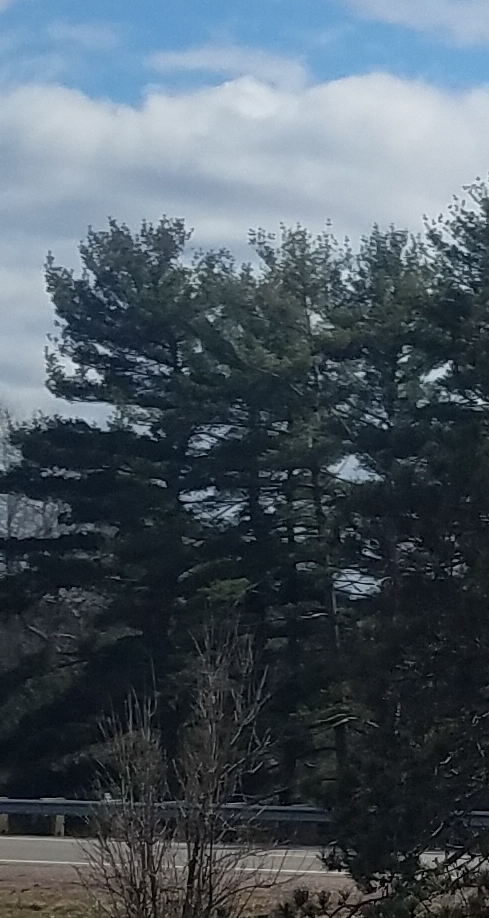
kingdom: Plantae
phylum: Tracheophyta
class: Pinopsida
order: Pinales
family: Pinaceae
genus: Pinus
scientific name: Pinus strobus
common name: Weymouth pine
